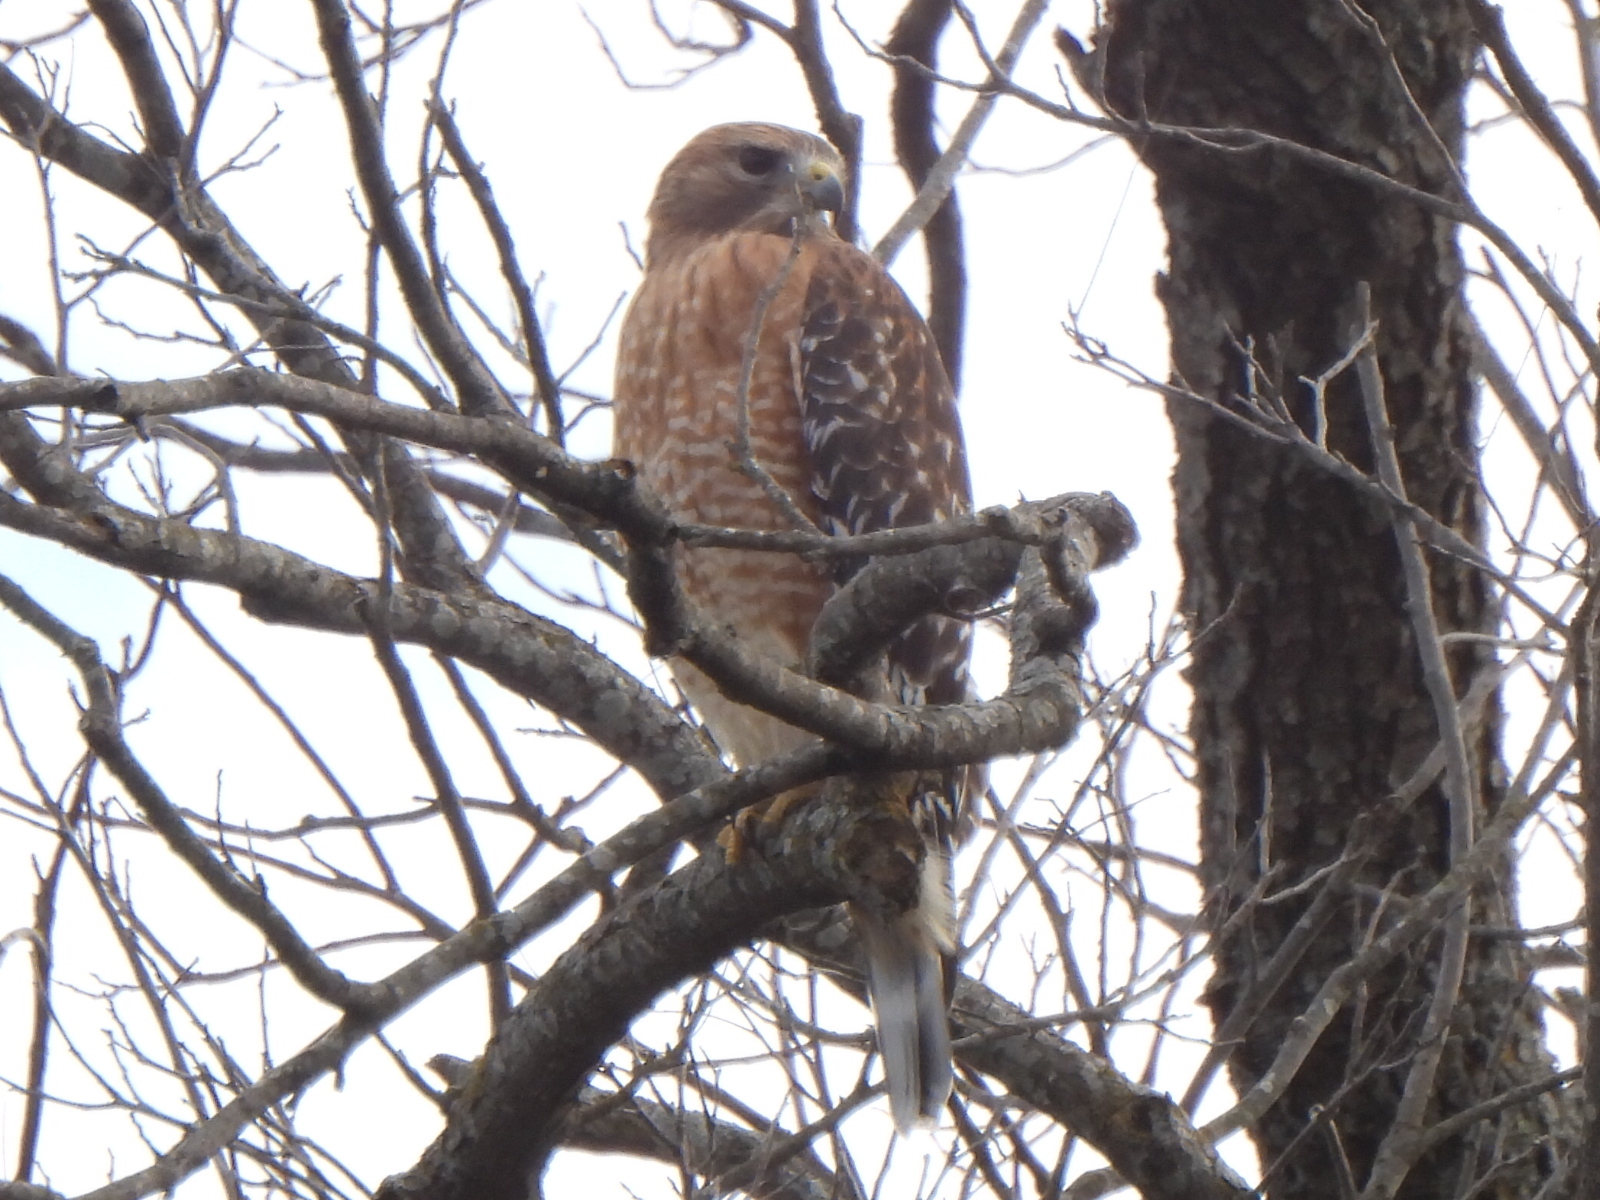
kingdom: Animalia
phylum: Chordata
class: Aves
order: Accipitriformes
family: Accipitridae
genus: Buteo
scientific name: Buteo lineatus
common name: Red-shouldered hawk
